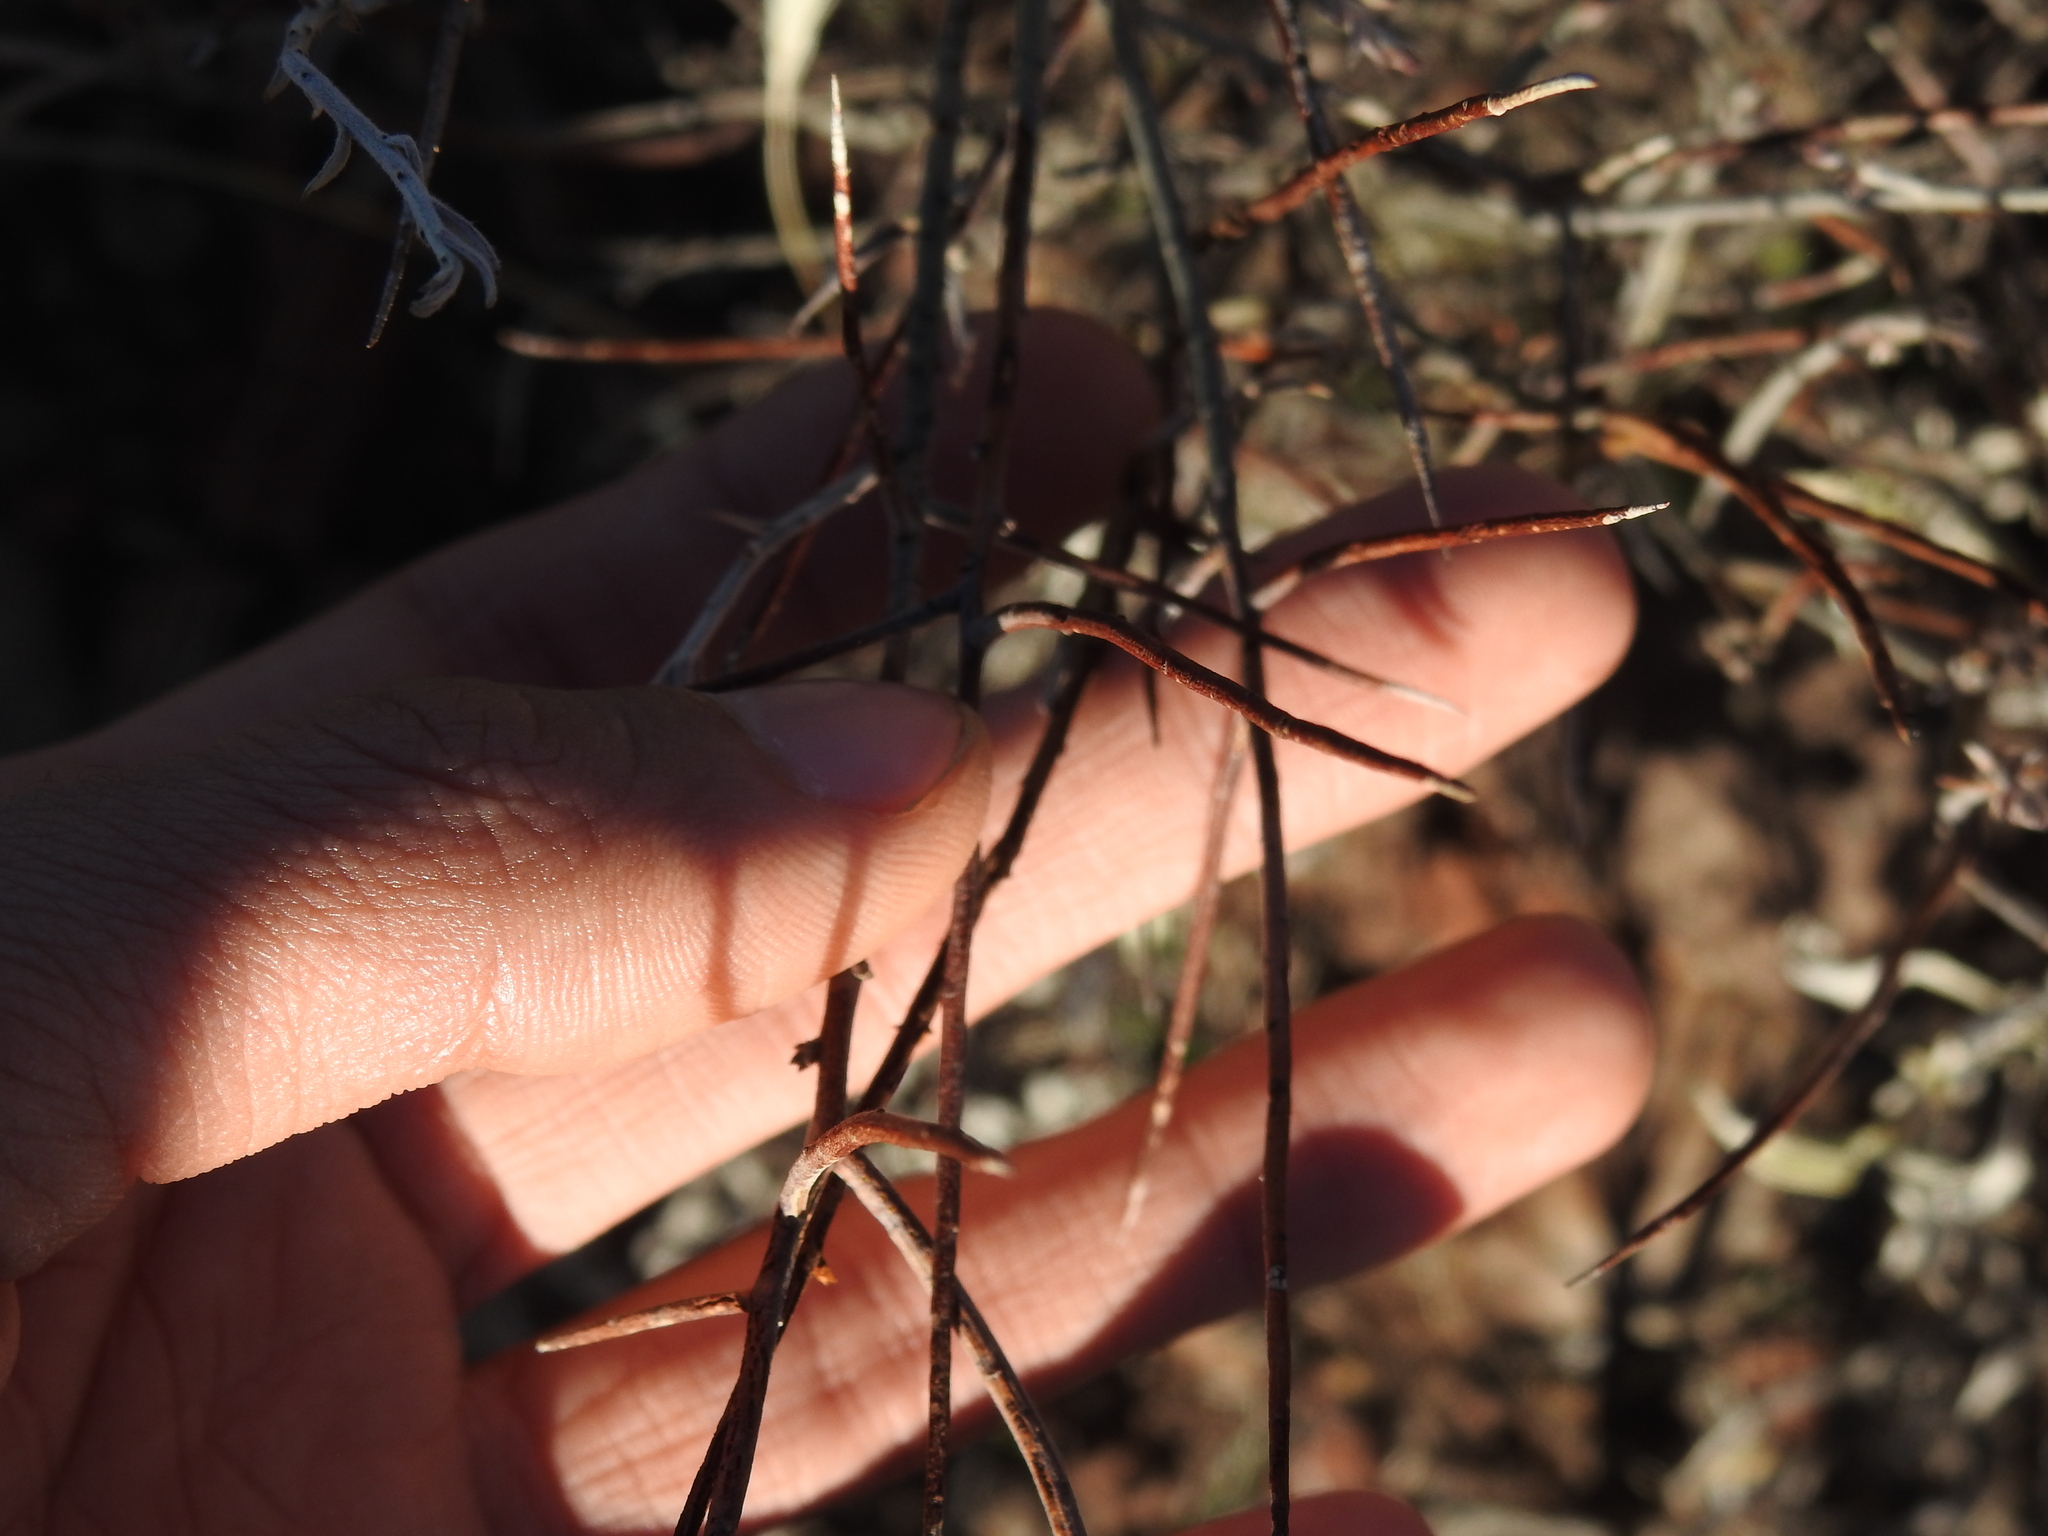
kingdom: Plantae
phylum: Tracheophyta
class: Magnoliopsida
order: Fabales
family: Fabaceae
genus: Calliandra
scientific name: Calliandra eriophylla
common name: Fairy-duster
